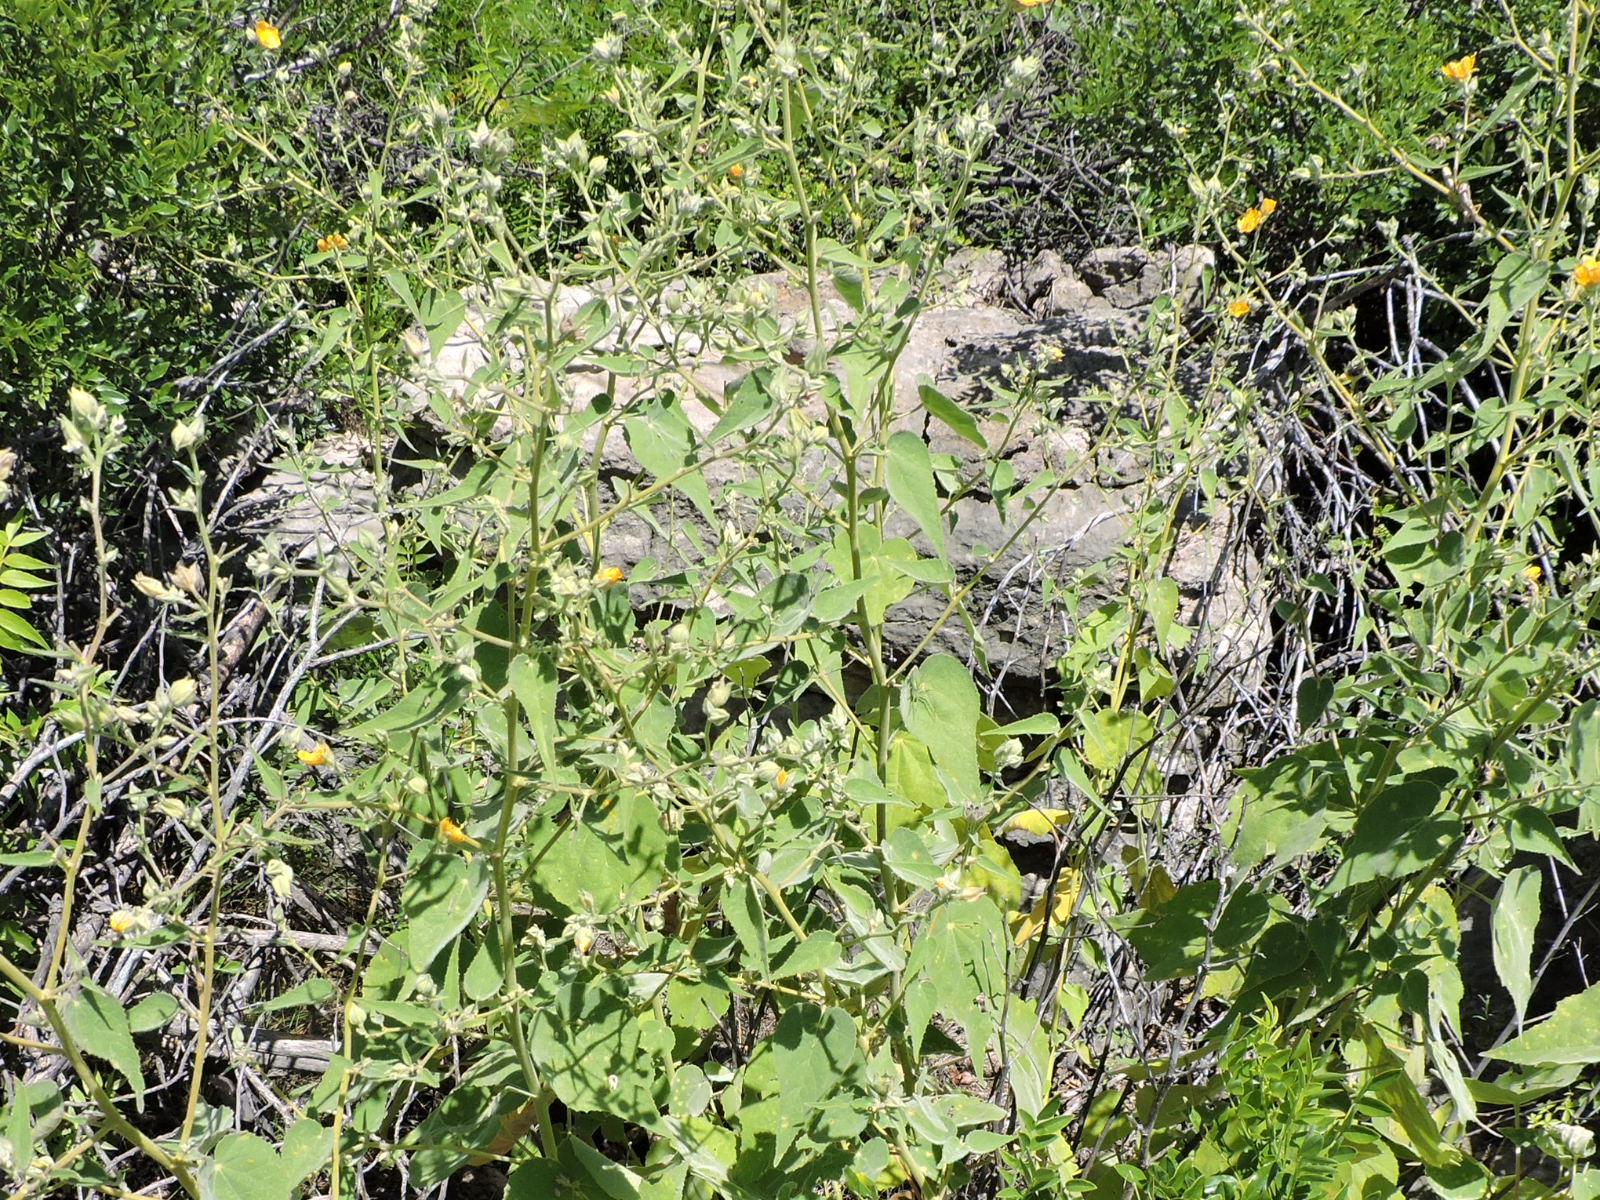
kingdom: Plantae
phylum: Tracheophyta
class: Magnoliopsida
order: Malvales
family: Malvaceae
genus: Allowissadula
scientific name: Allowissadula holosericea
